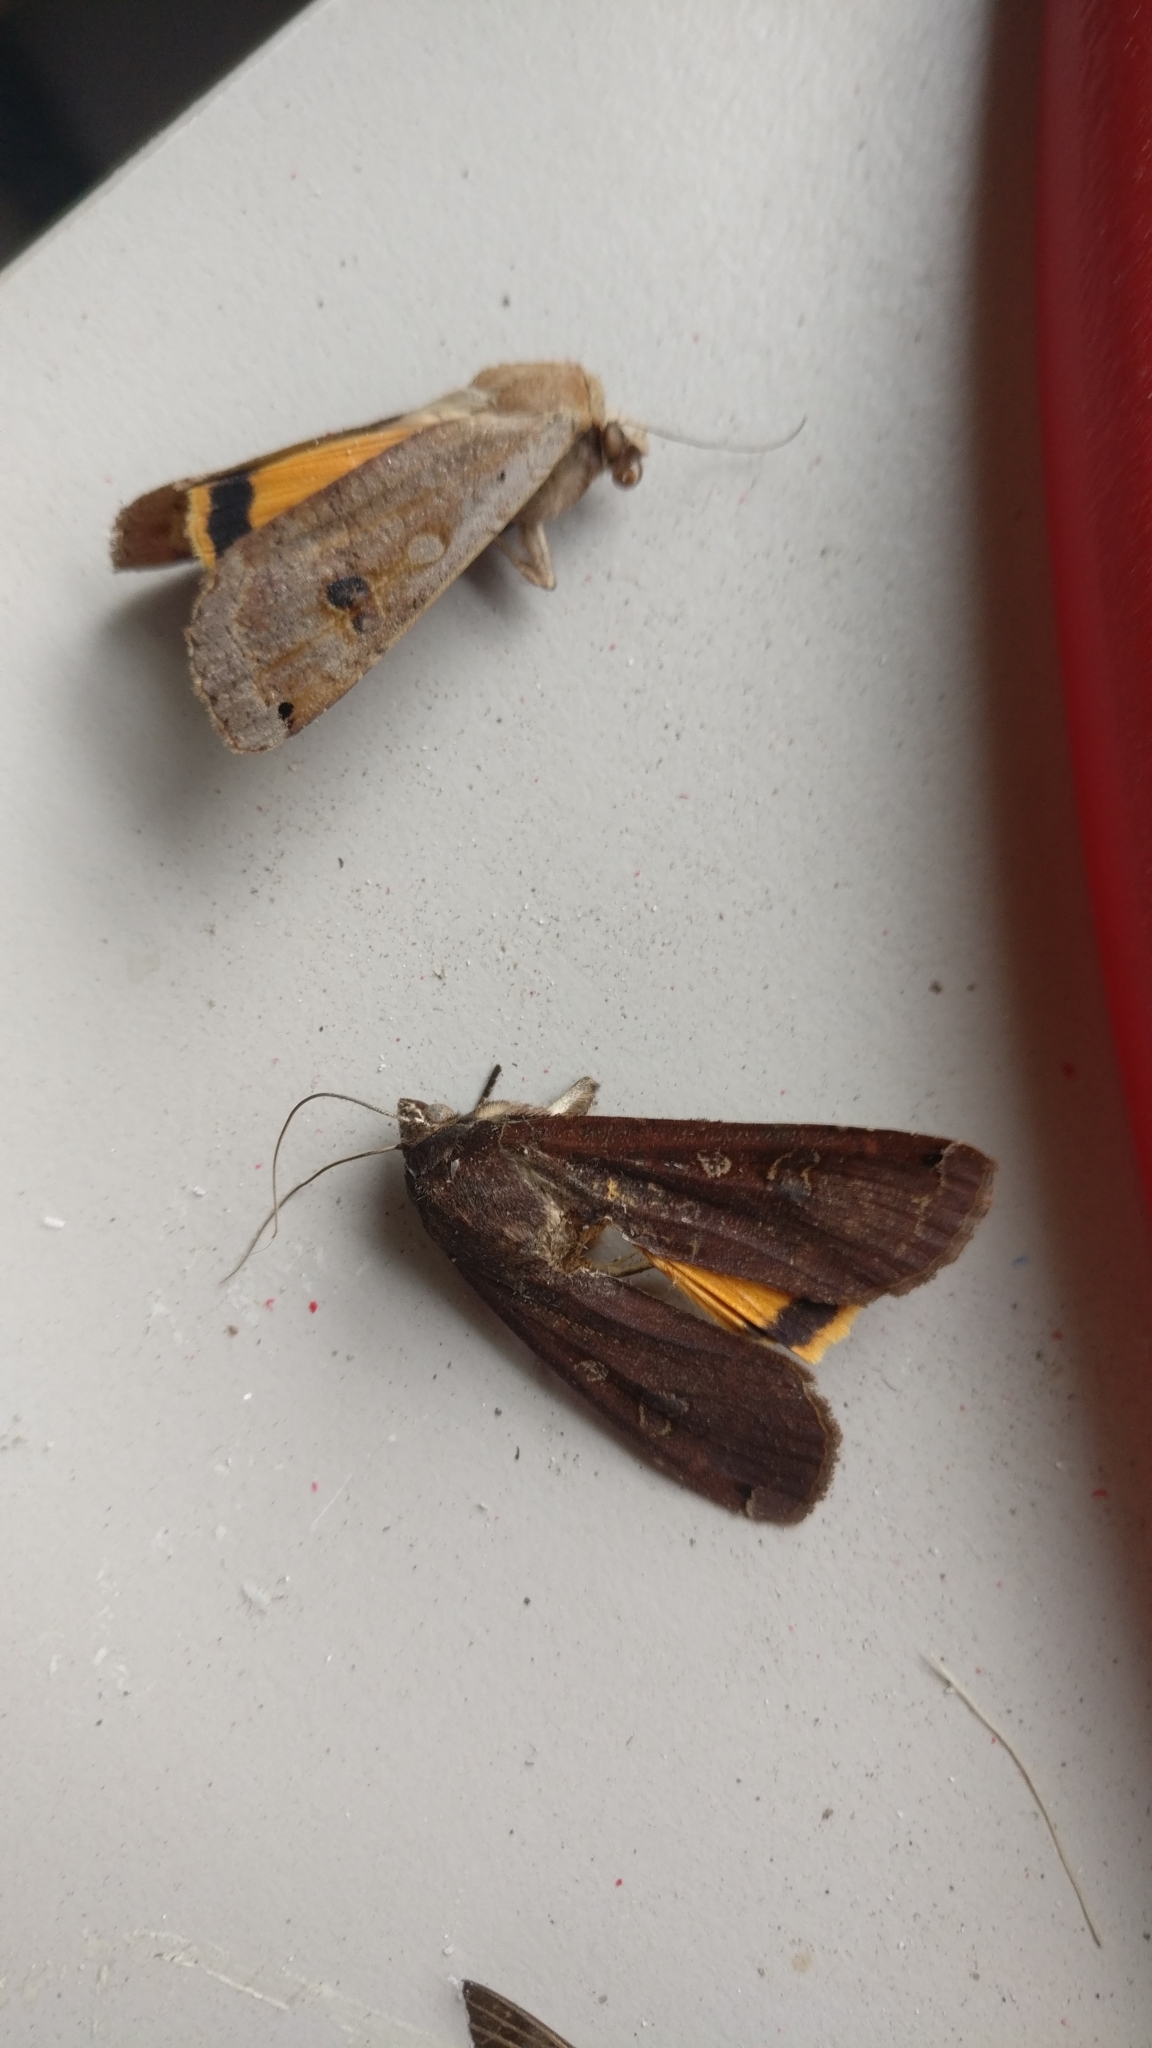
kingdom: Animalia
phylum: Arthropoda
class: Insecta
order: Lepidoptera
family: Noctuidae
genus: Noctua
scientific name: Noctua pronuba
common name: Large yellow underwing
